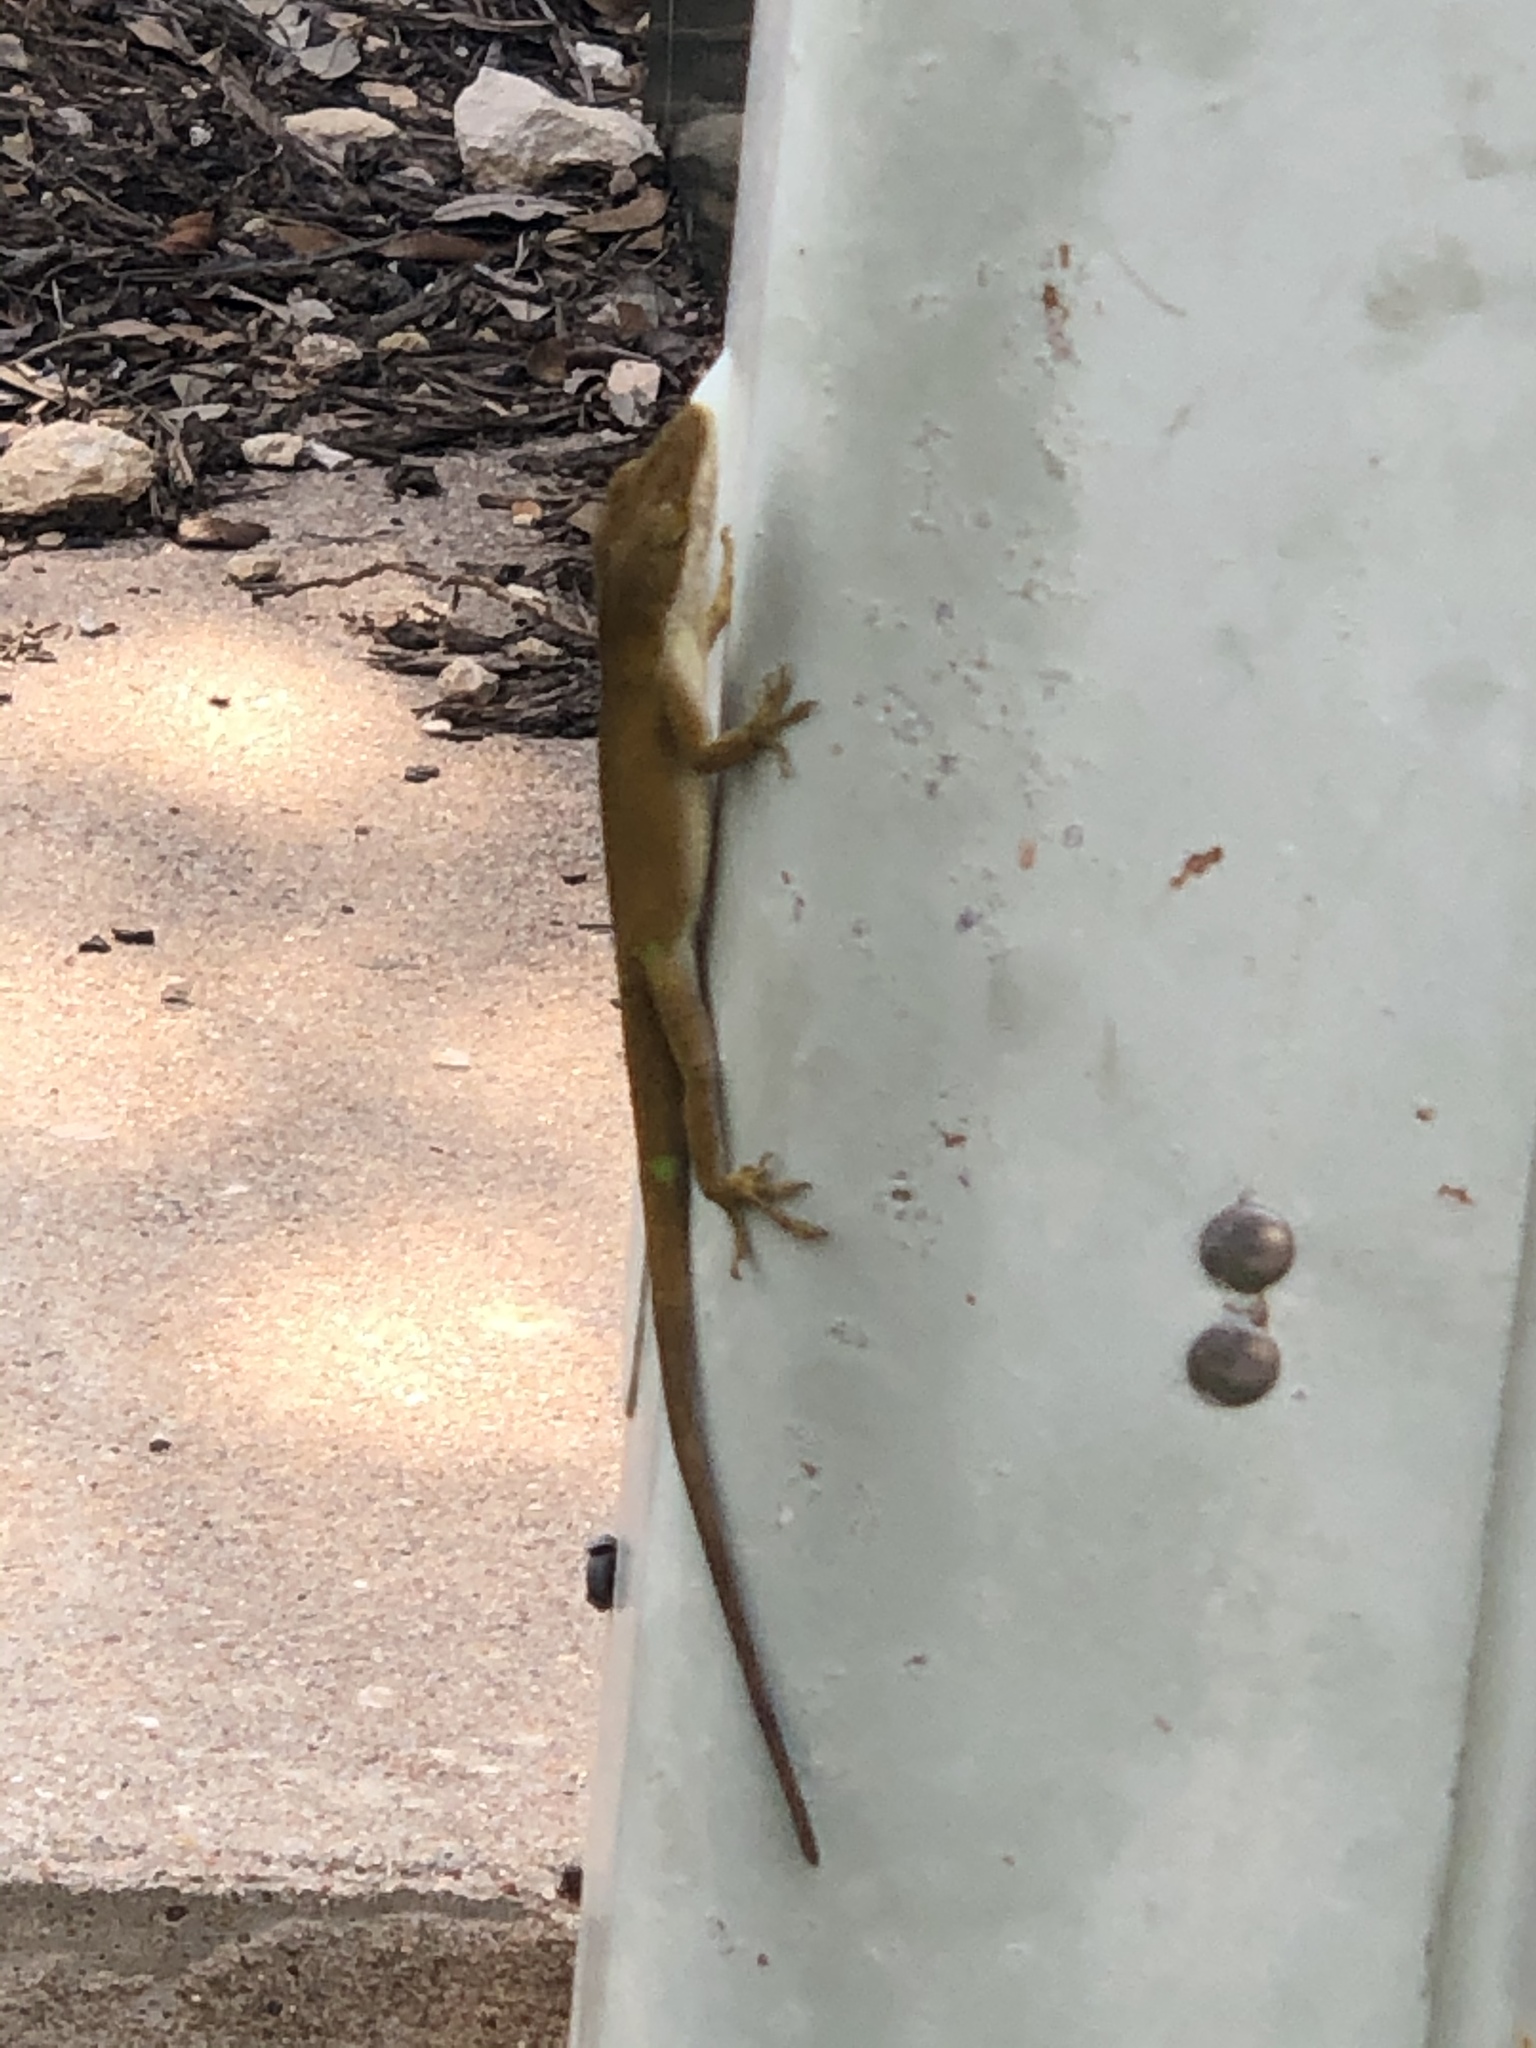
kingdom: Animalia
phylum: Chordata
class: Squamata
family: Dactyloidae
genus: Anolis
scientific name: Anolis carolinensis
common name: Green anole
